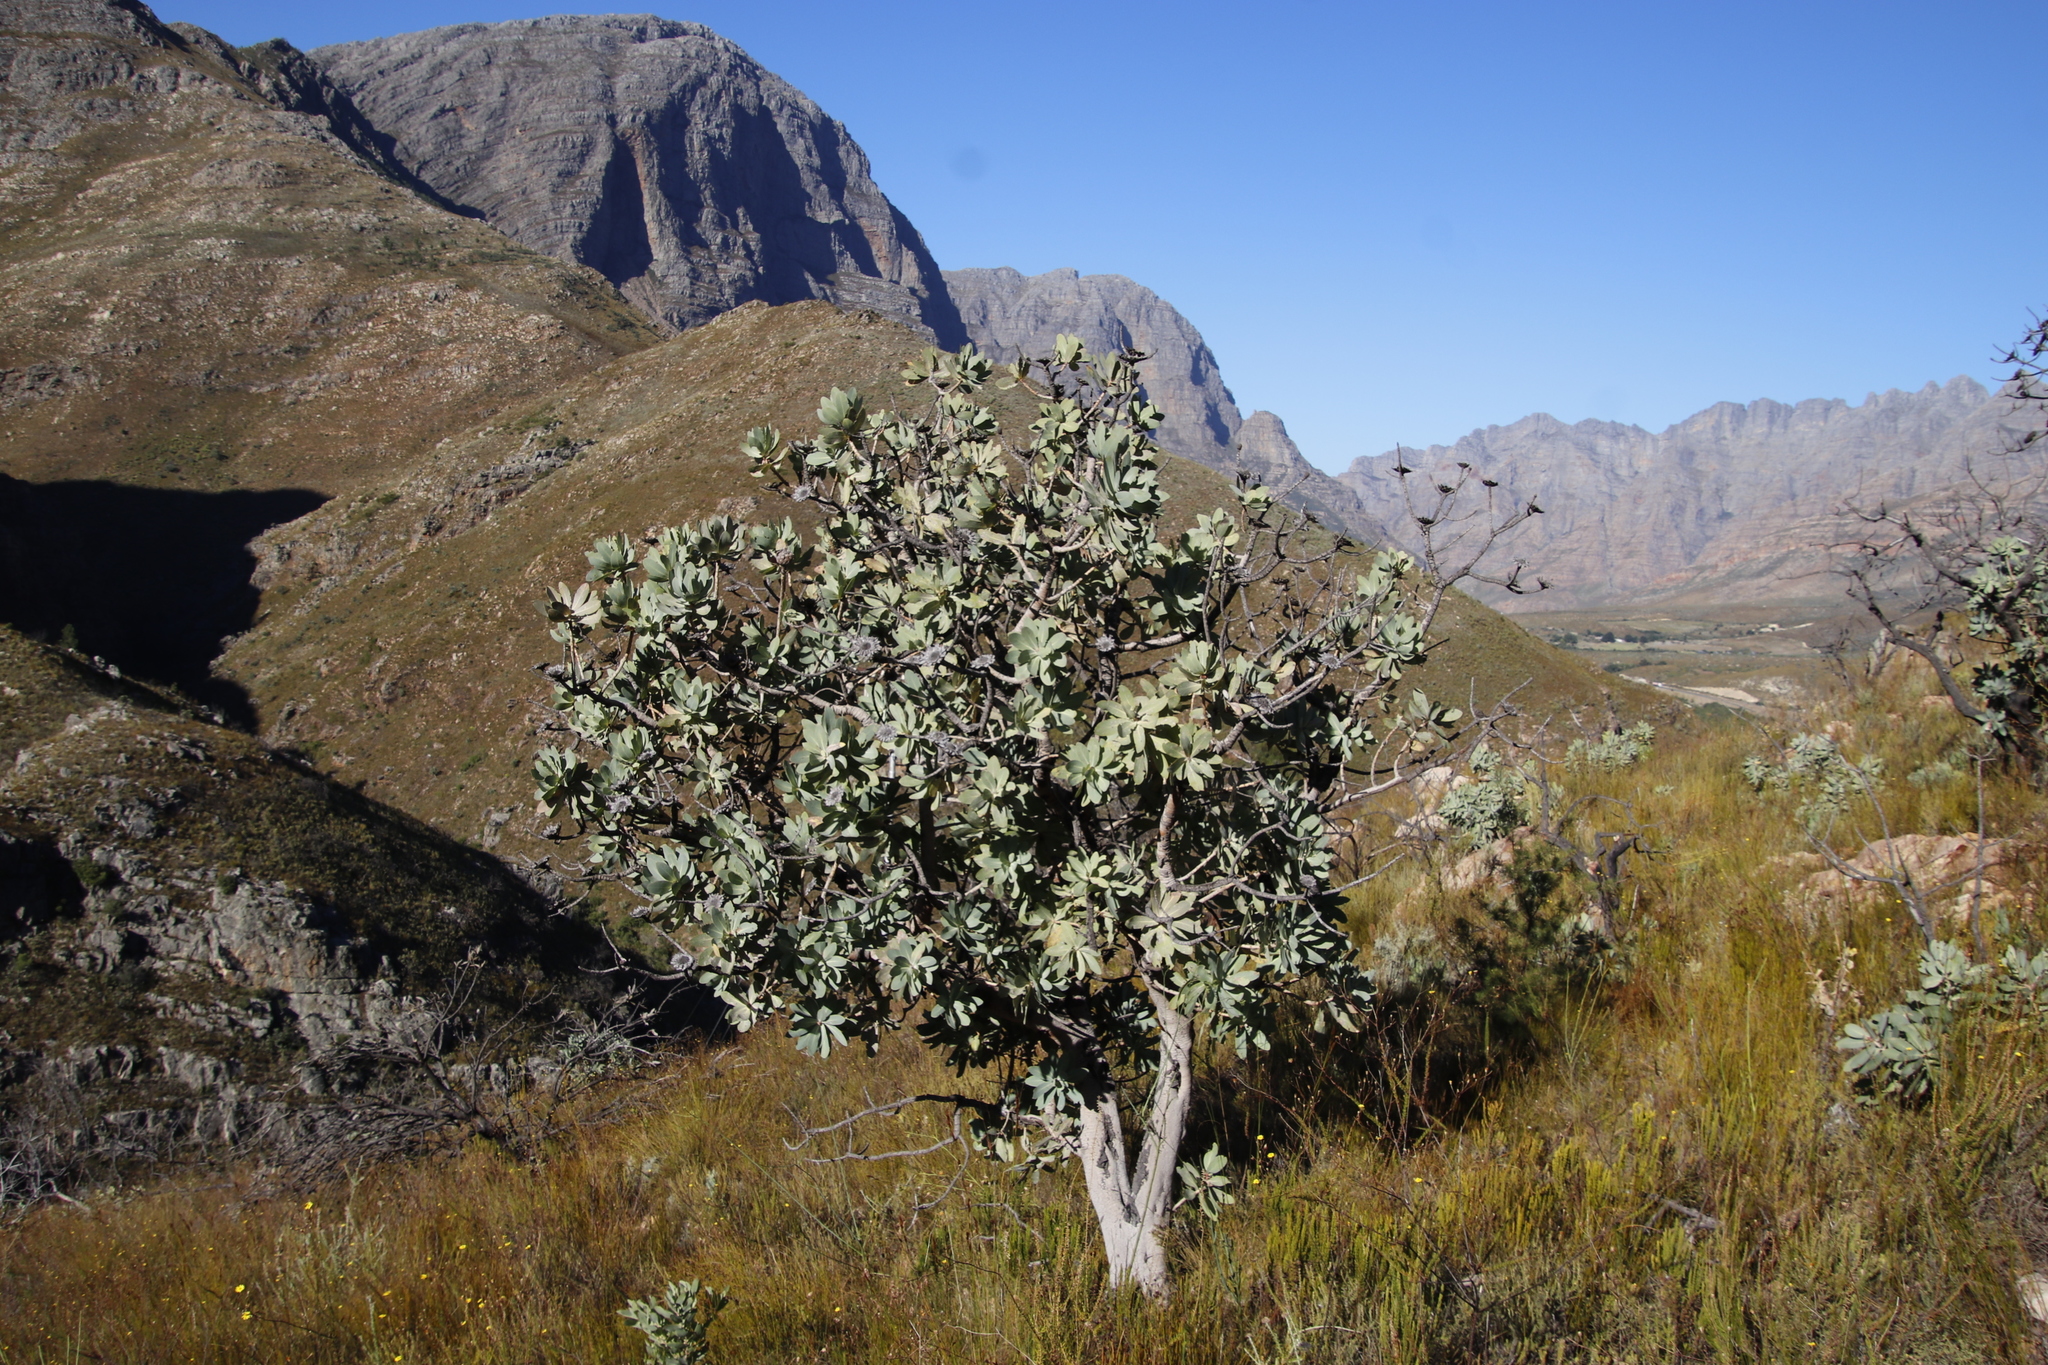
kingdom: Plantae
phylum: Tracheophyta
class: Magnoliopsida
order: Proteales
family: Proteaceae
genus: Protea
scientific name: Protea nitida
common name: Tree protea
